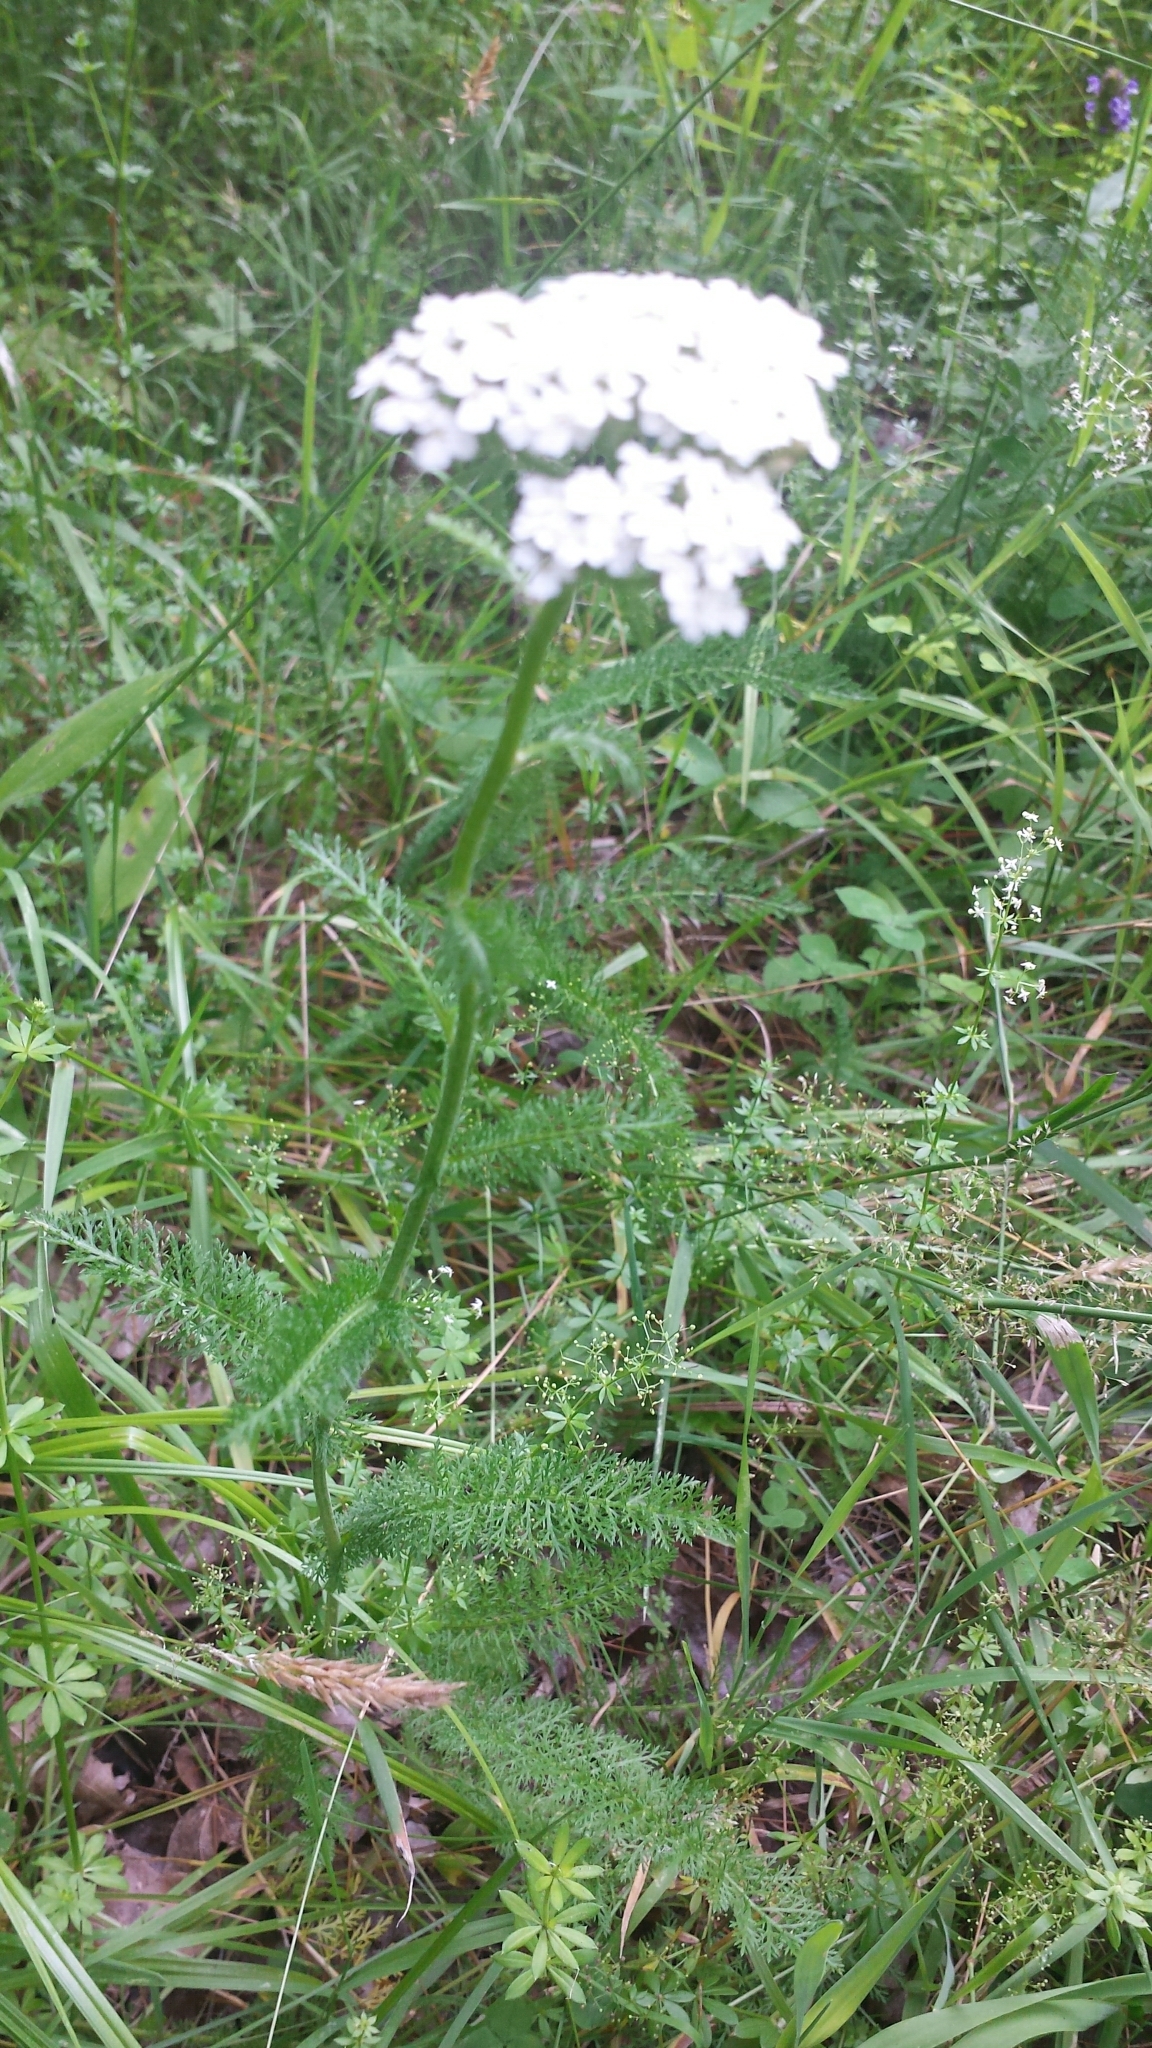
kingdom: Plantae
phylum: Tracheophyta
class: Magnoliopsida
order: Asterales
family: Asteraceae
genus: Achillea
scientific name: Achillea millefolium
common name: Yarrow
